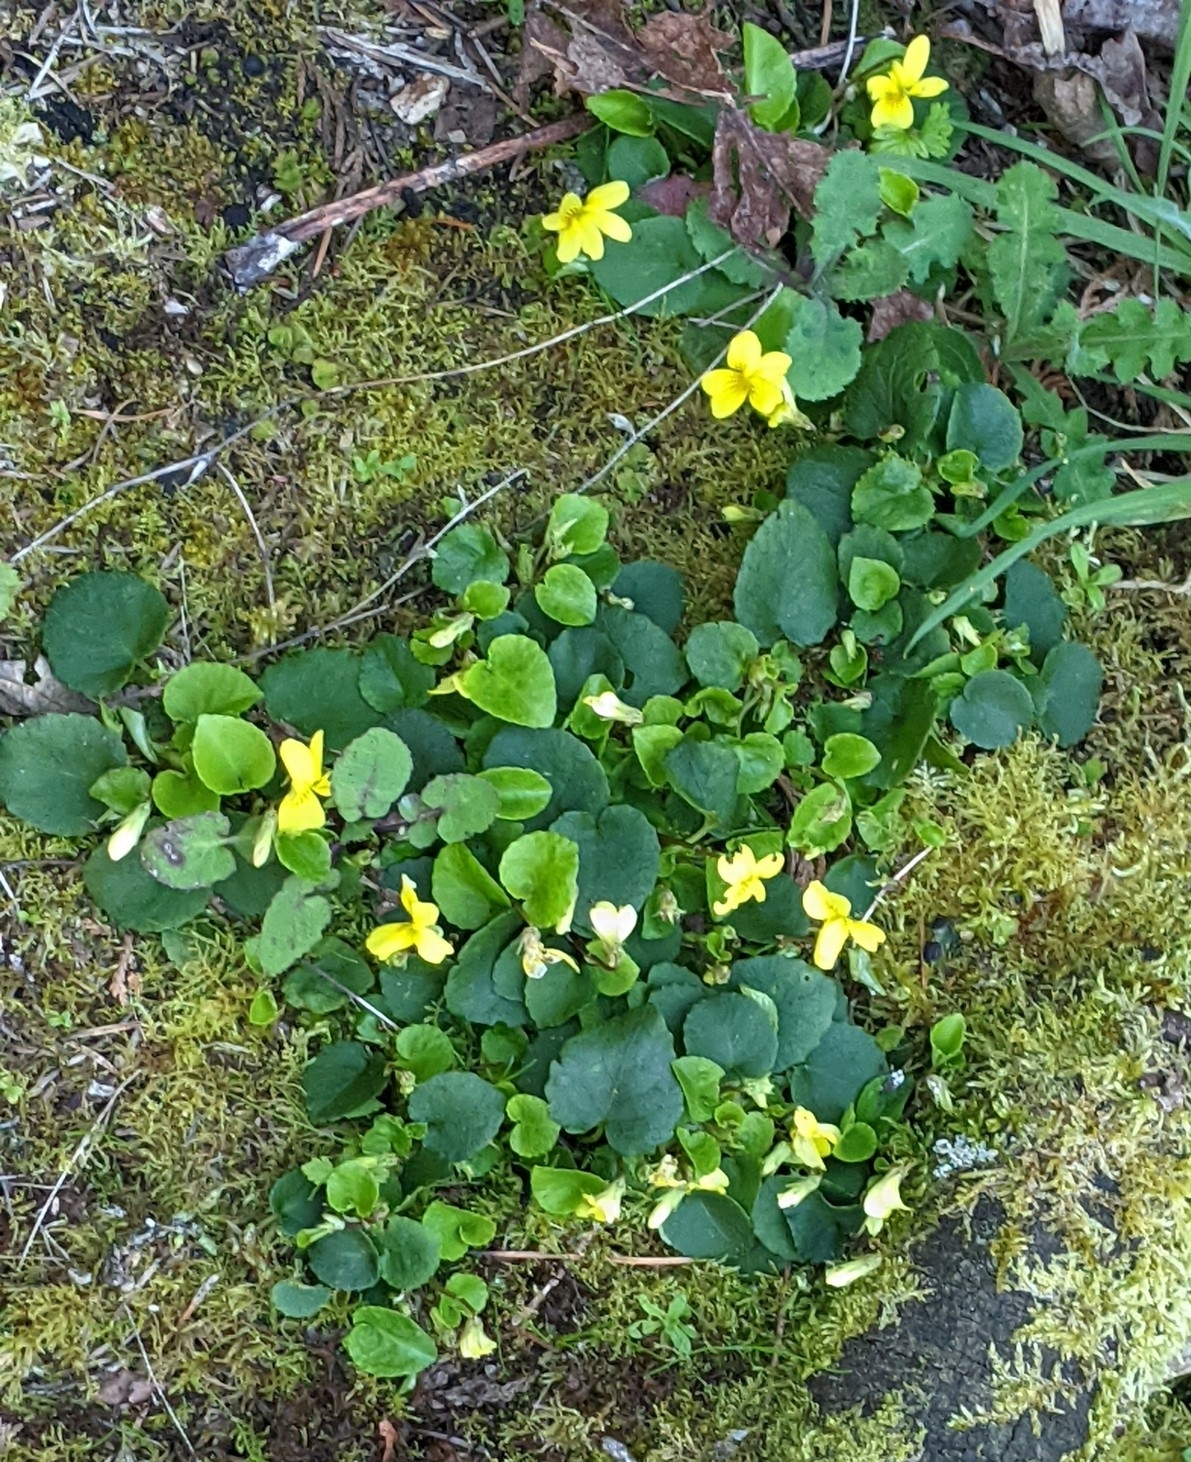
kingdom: Plantae
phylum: Tracheophyta
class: Magnoliopsida
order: Malpighiales
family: Violaceae
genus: Viola
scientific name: Viola sempervirens
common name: Evergreen violet
